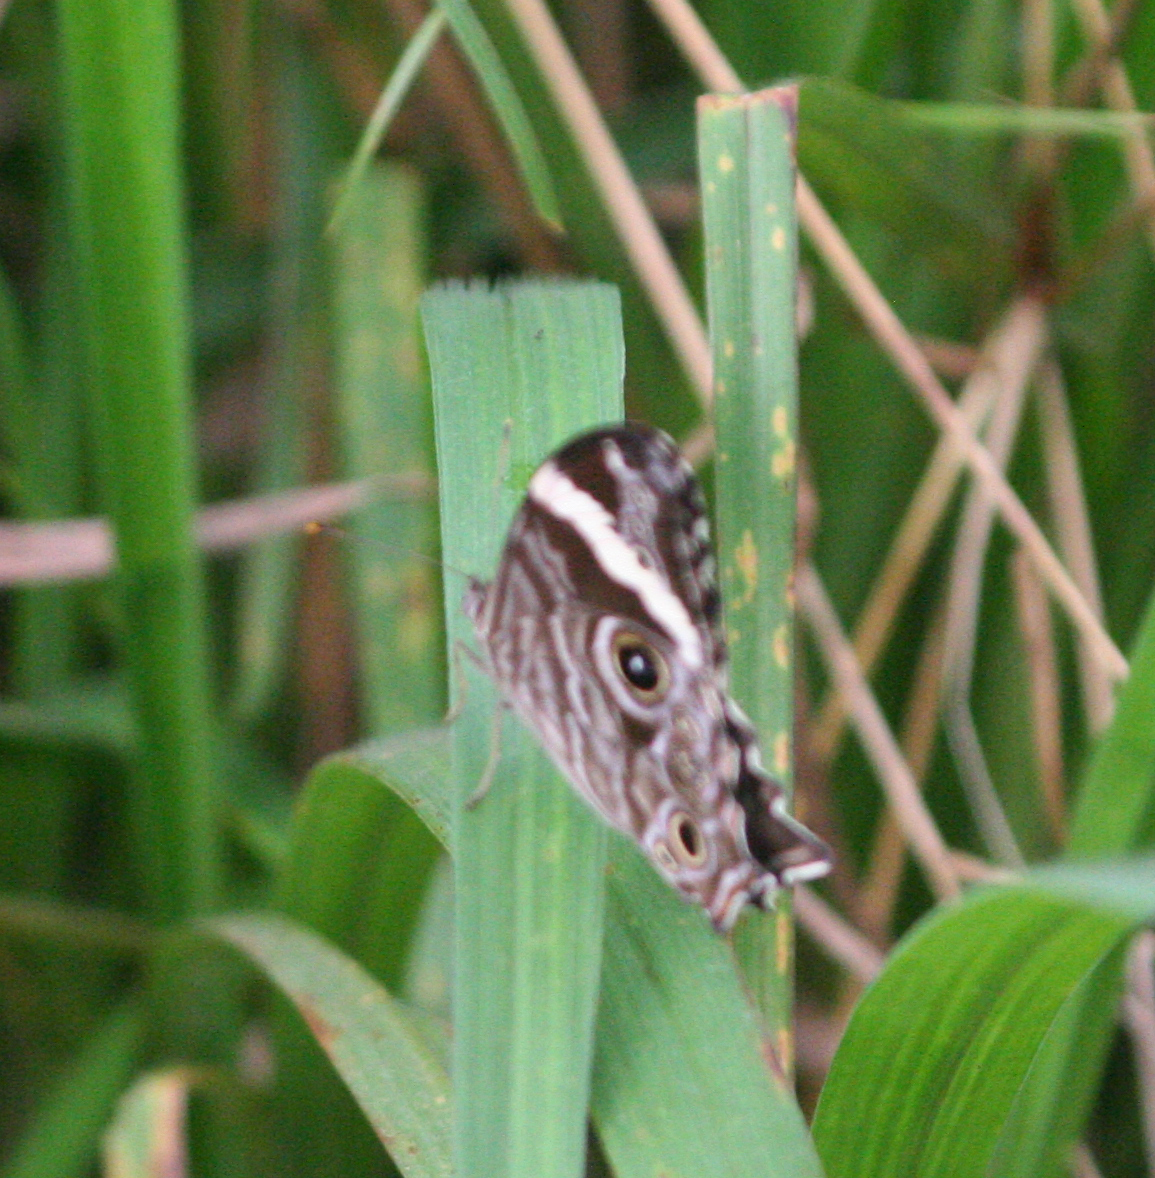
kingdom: Animalia
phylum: Arthropoda
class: Insecta
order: Lepidoptera
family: Nymphalidae
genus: Lethe
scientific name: Lethe rohria
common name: Common treebrown
